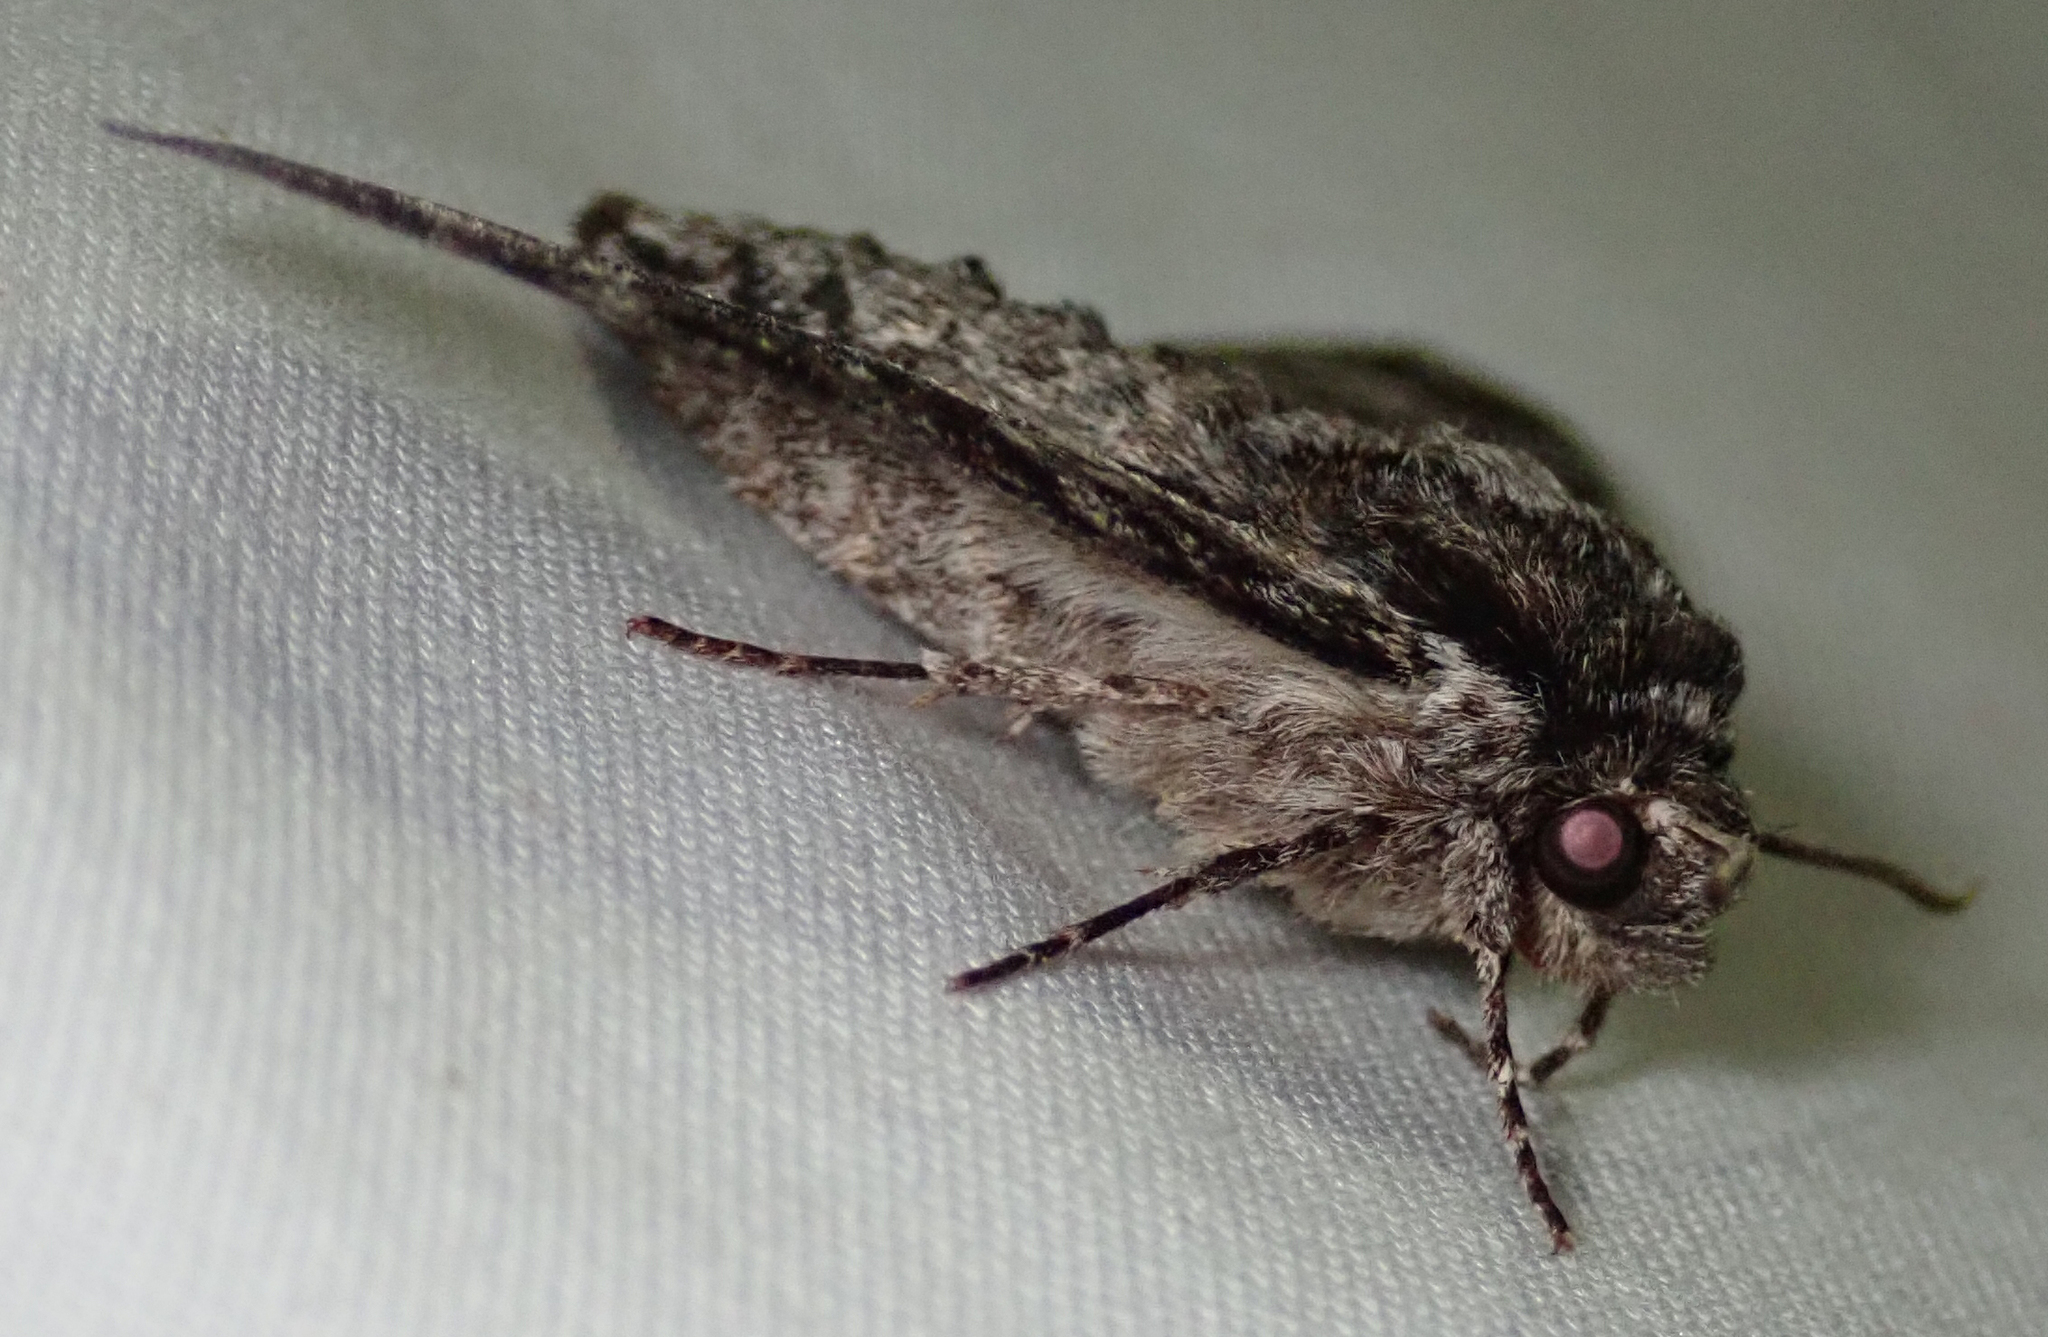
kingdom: Animalia
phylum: Arthropoda
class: Insecta
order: Lepidoptera
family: Sphingidae
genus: Praedora
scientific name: Praedora marshalli
